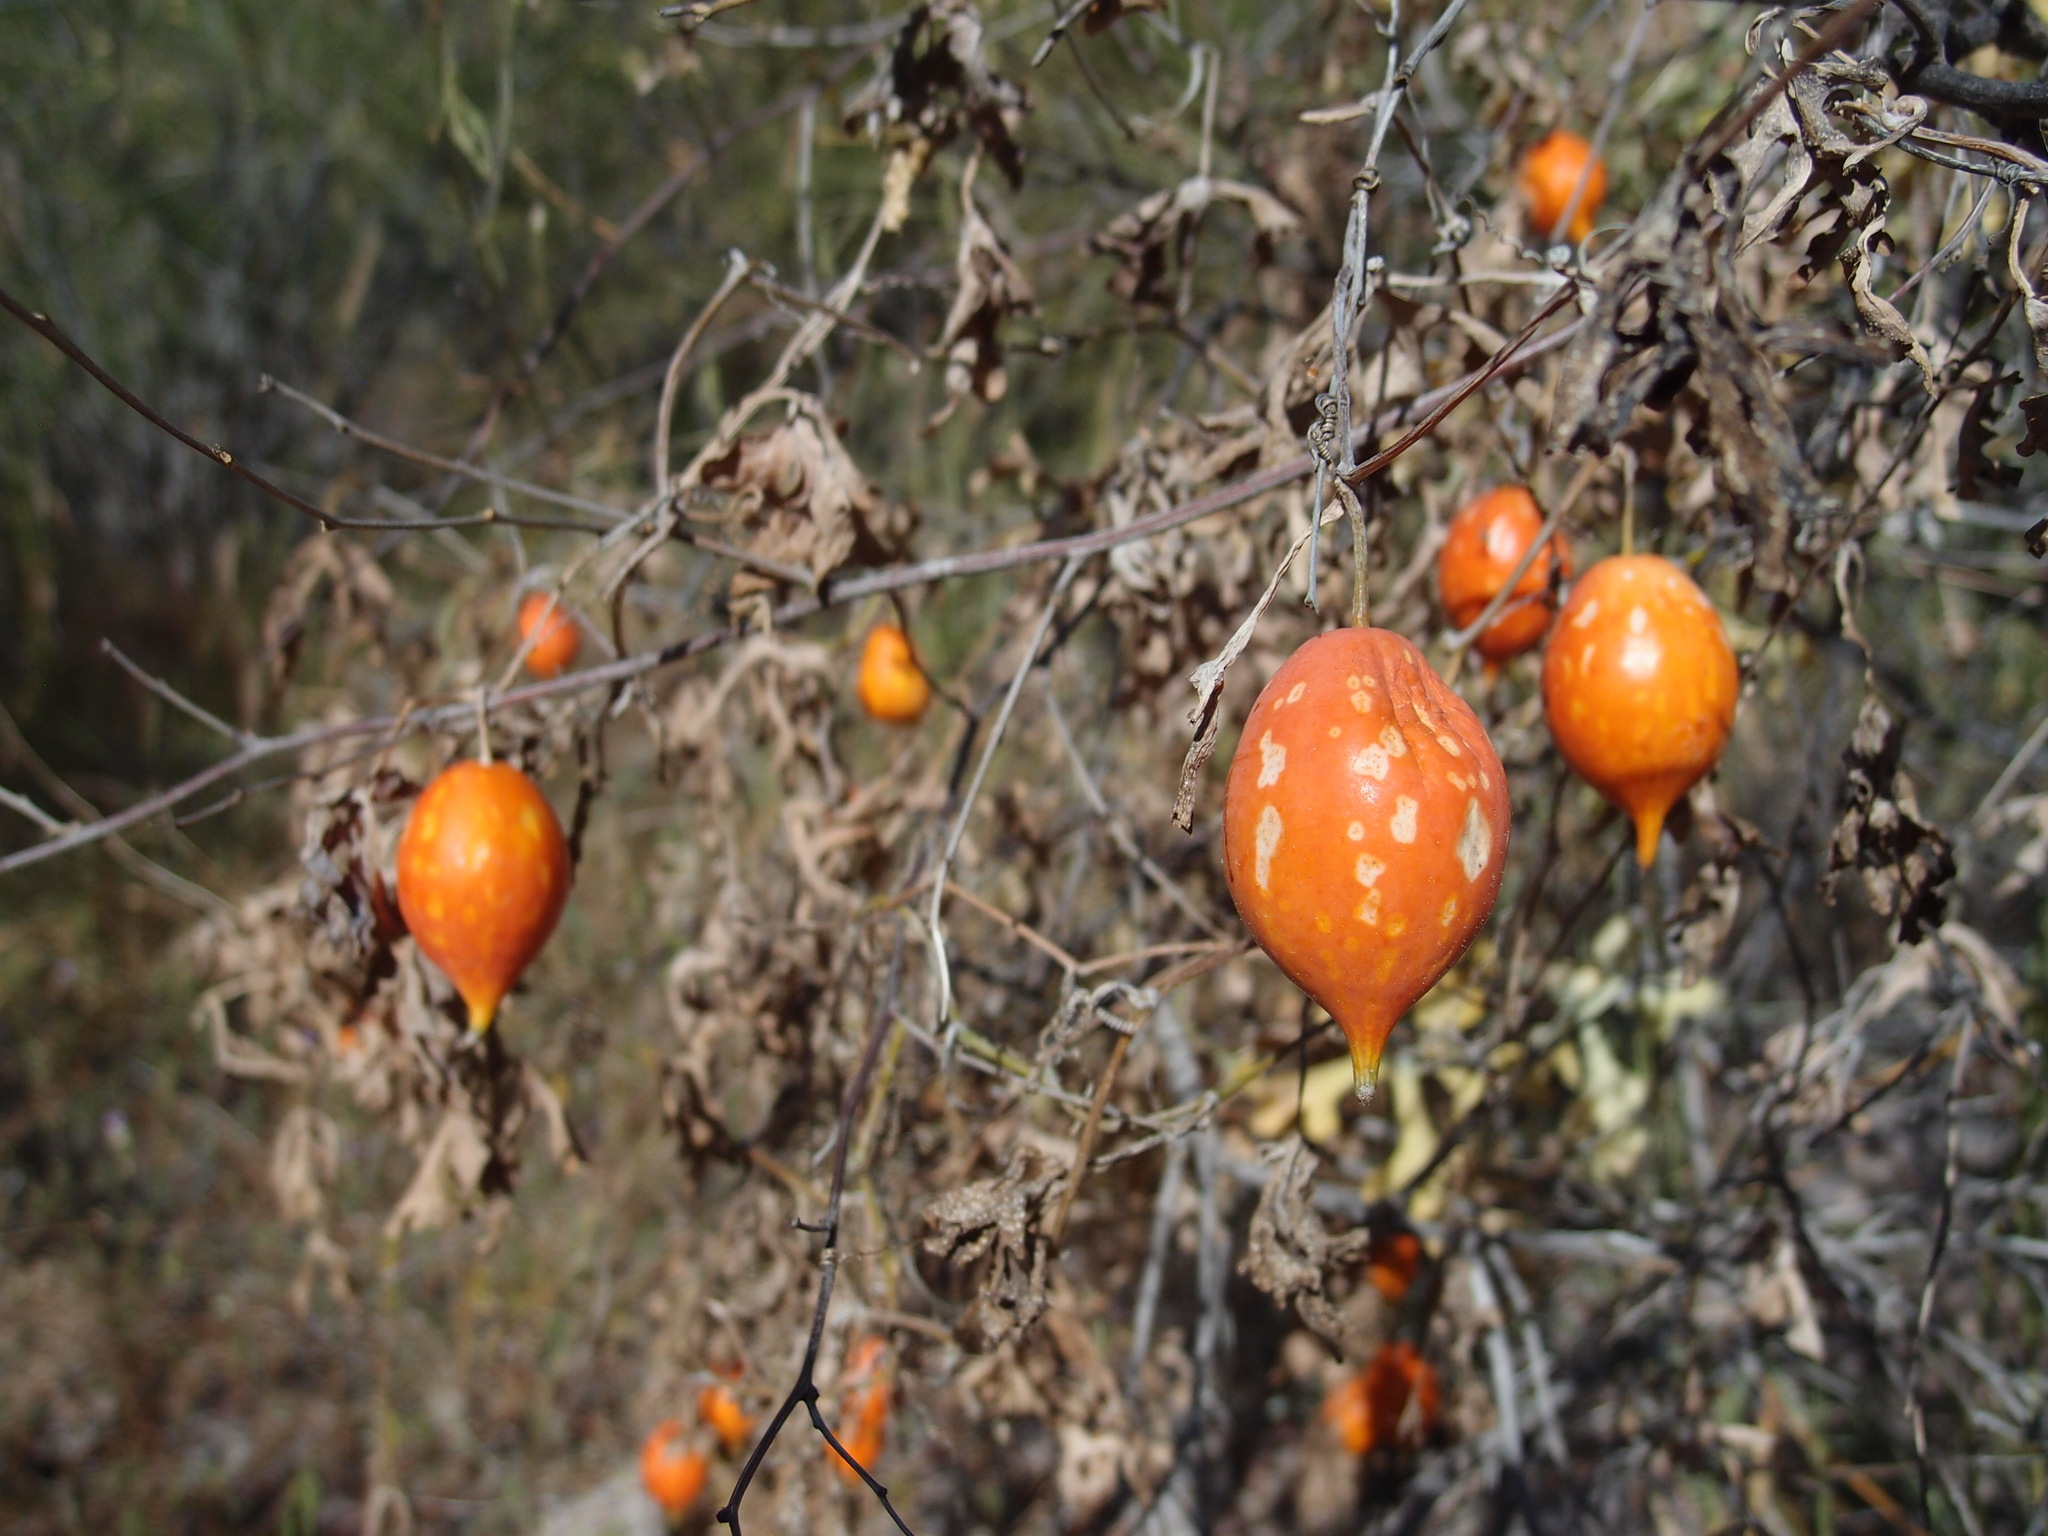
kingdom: Plantae
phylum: Tracheophyta
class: Magnoliopsida
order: Cucurbitales
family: Cucurbitaceae
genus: Ibervillea
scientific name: Ibervillea sonorae
